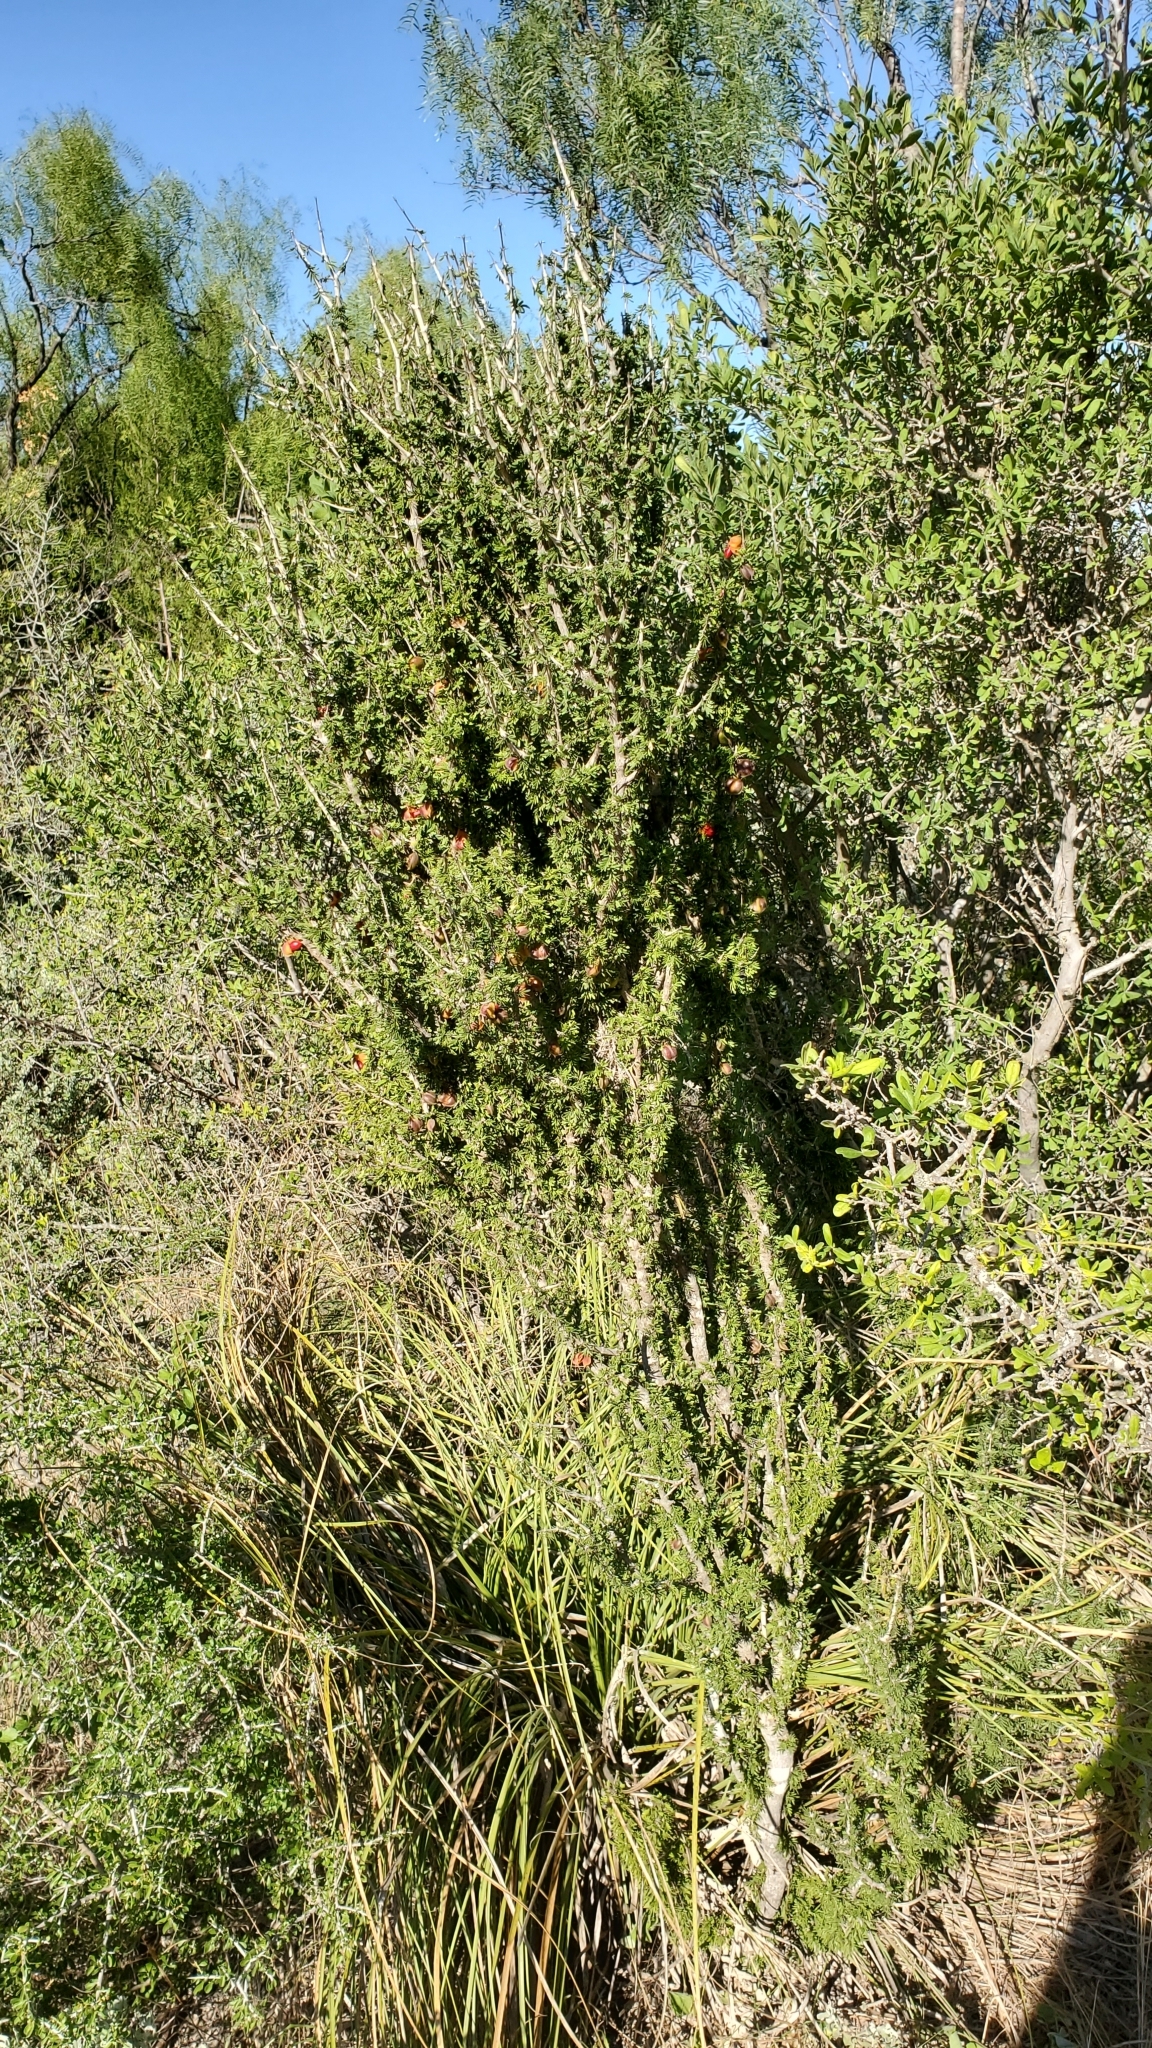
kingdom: Plantae
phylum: Tracheophyta
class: Magnoliopsida
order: Zygophyllales
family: Zygophyllaceae
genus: Porlieria
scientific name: Porlieria angustifolia
